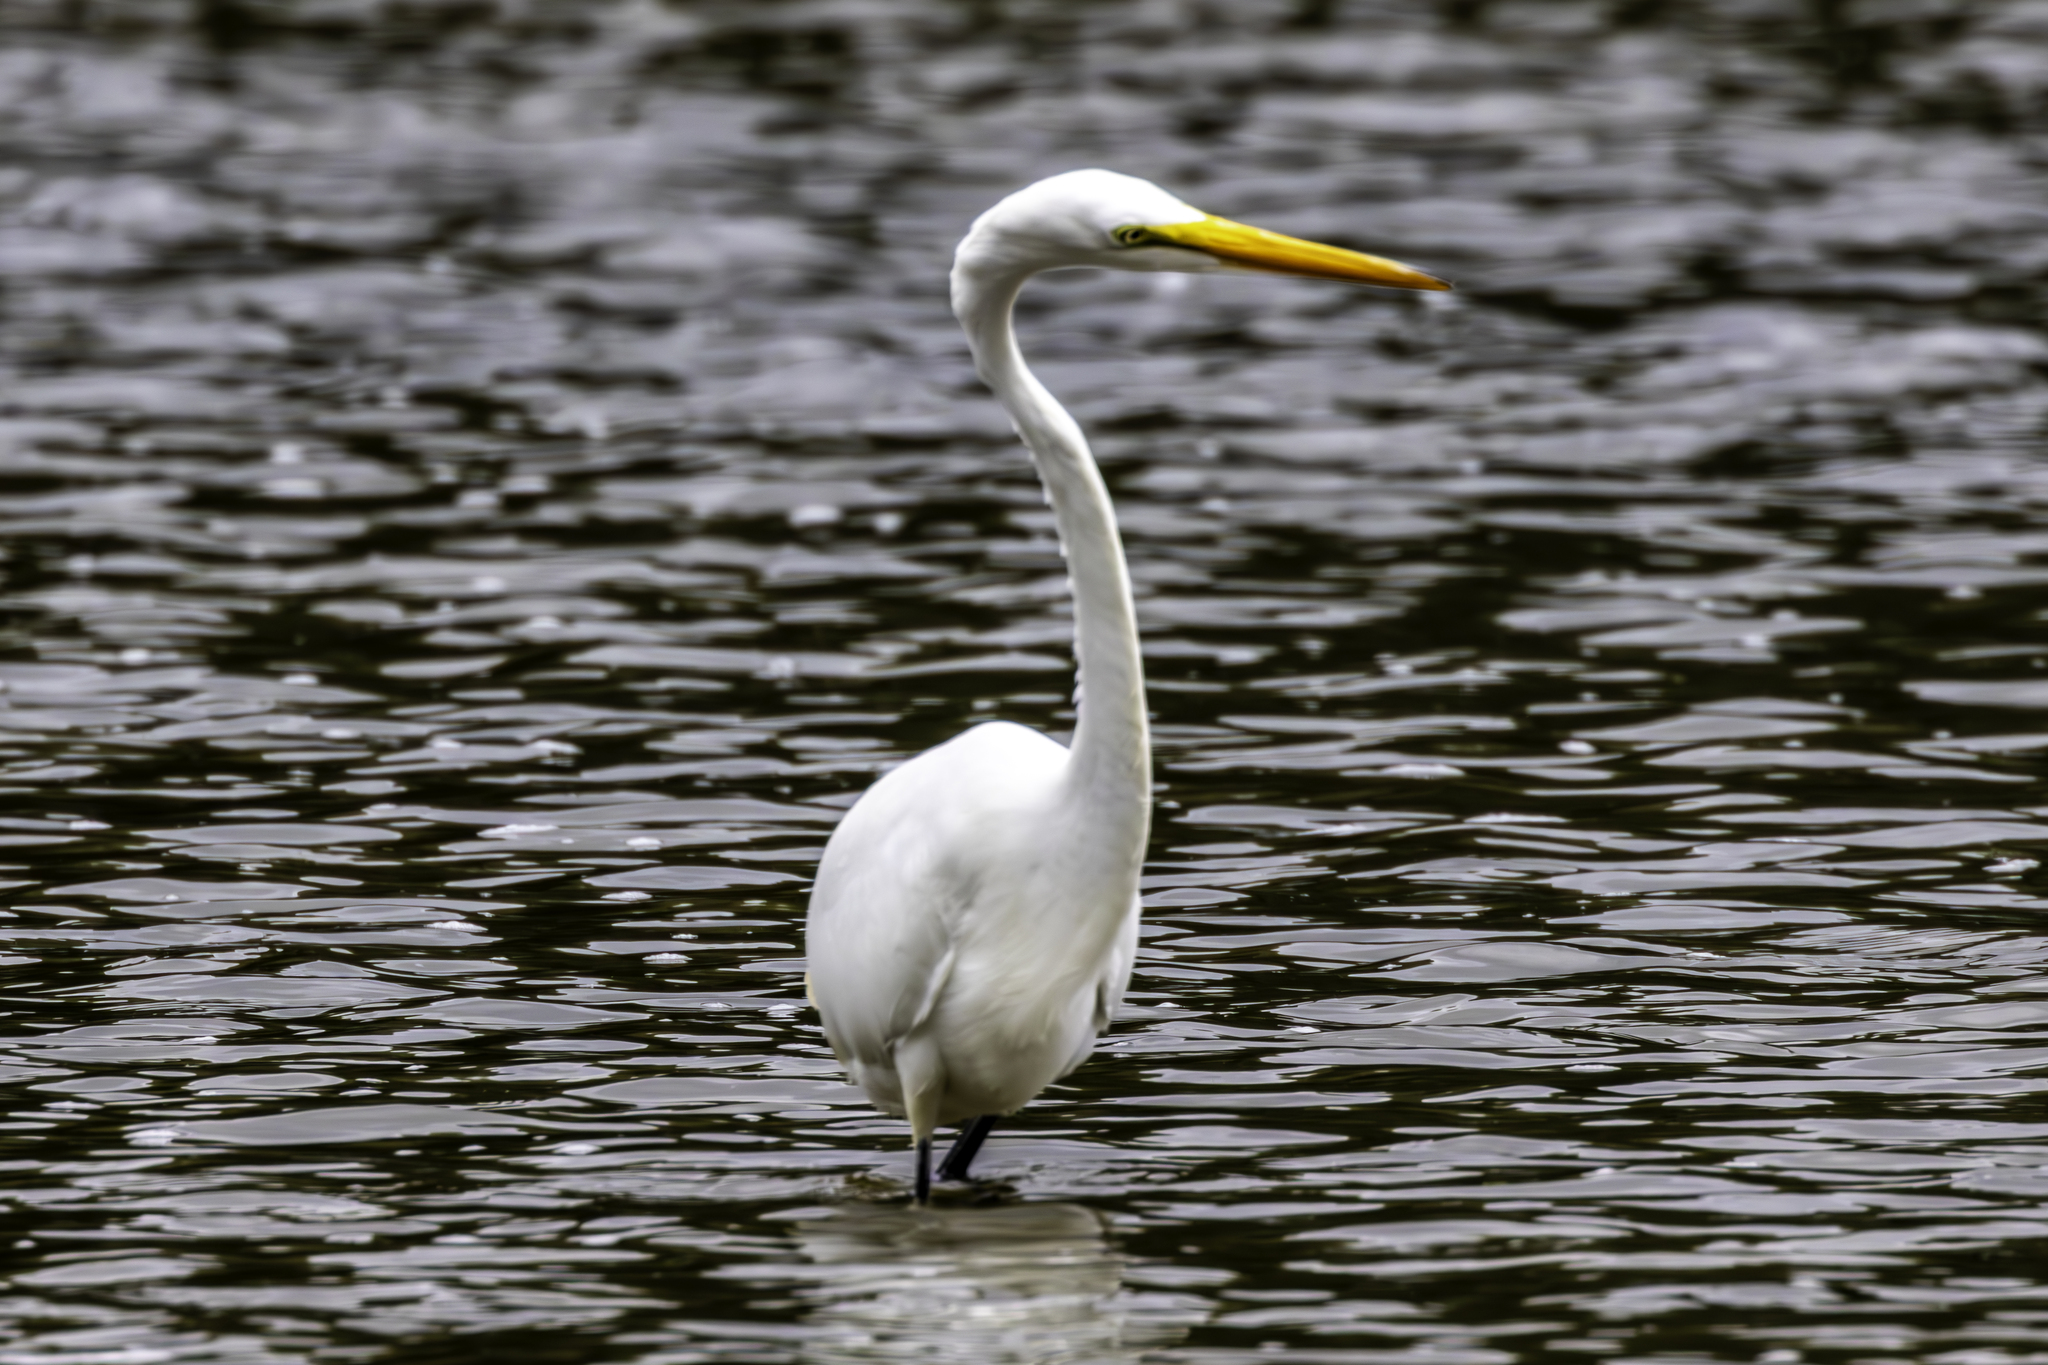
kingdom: Animalia
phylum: Chordata
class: Aves
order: Pelecaniformes
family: Ardeidae
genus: Ardea
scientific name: Ardea alba
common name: Great egret
